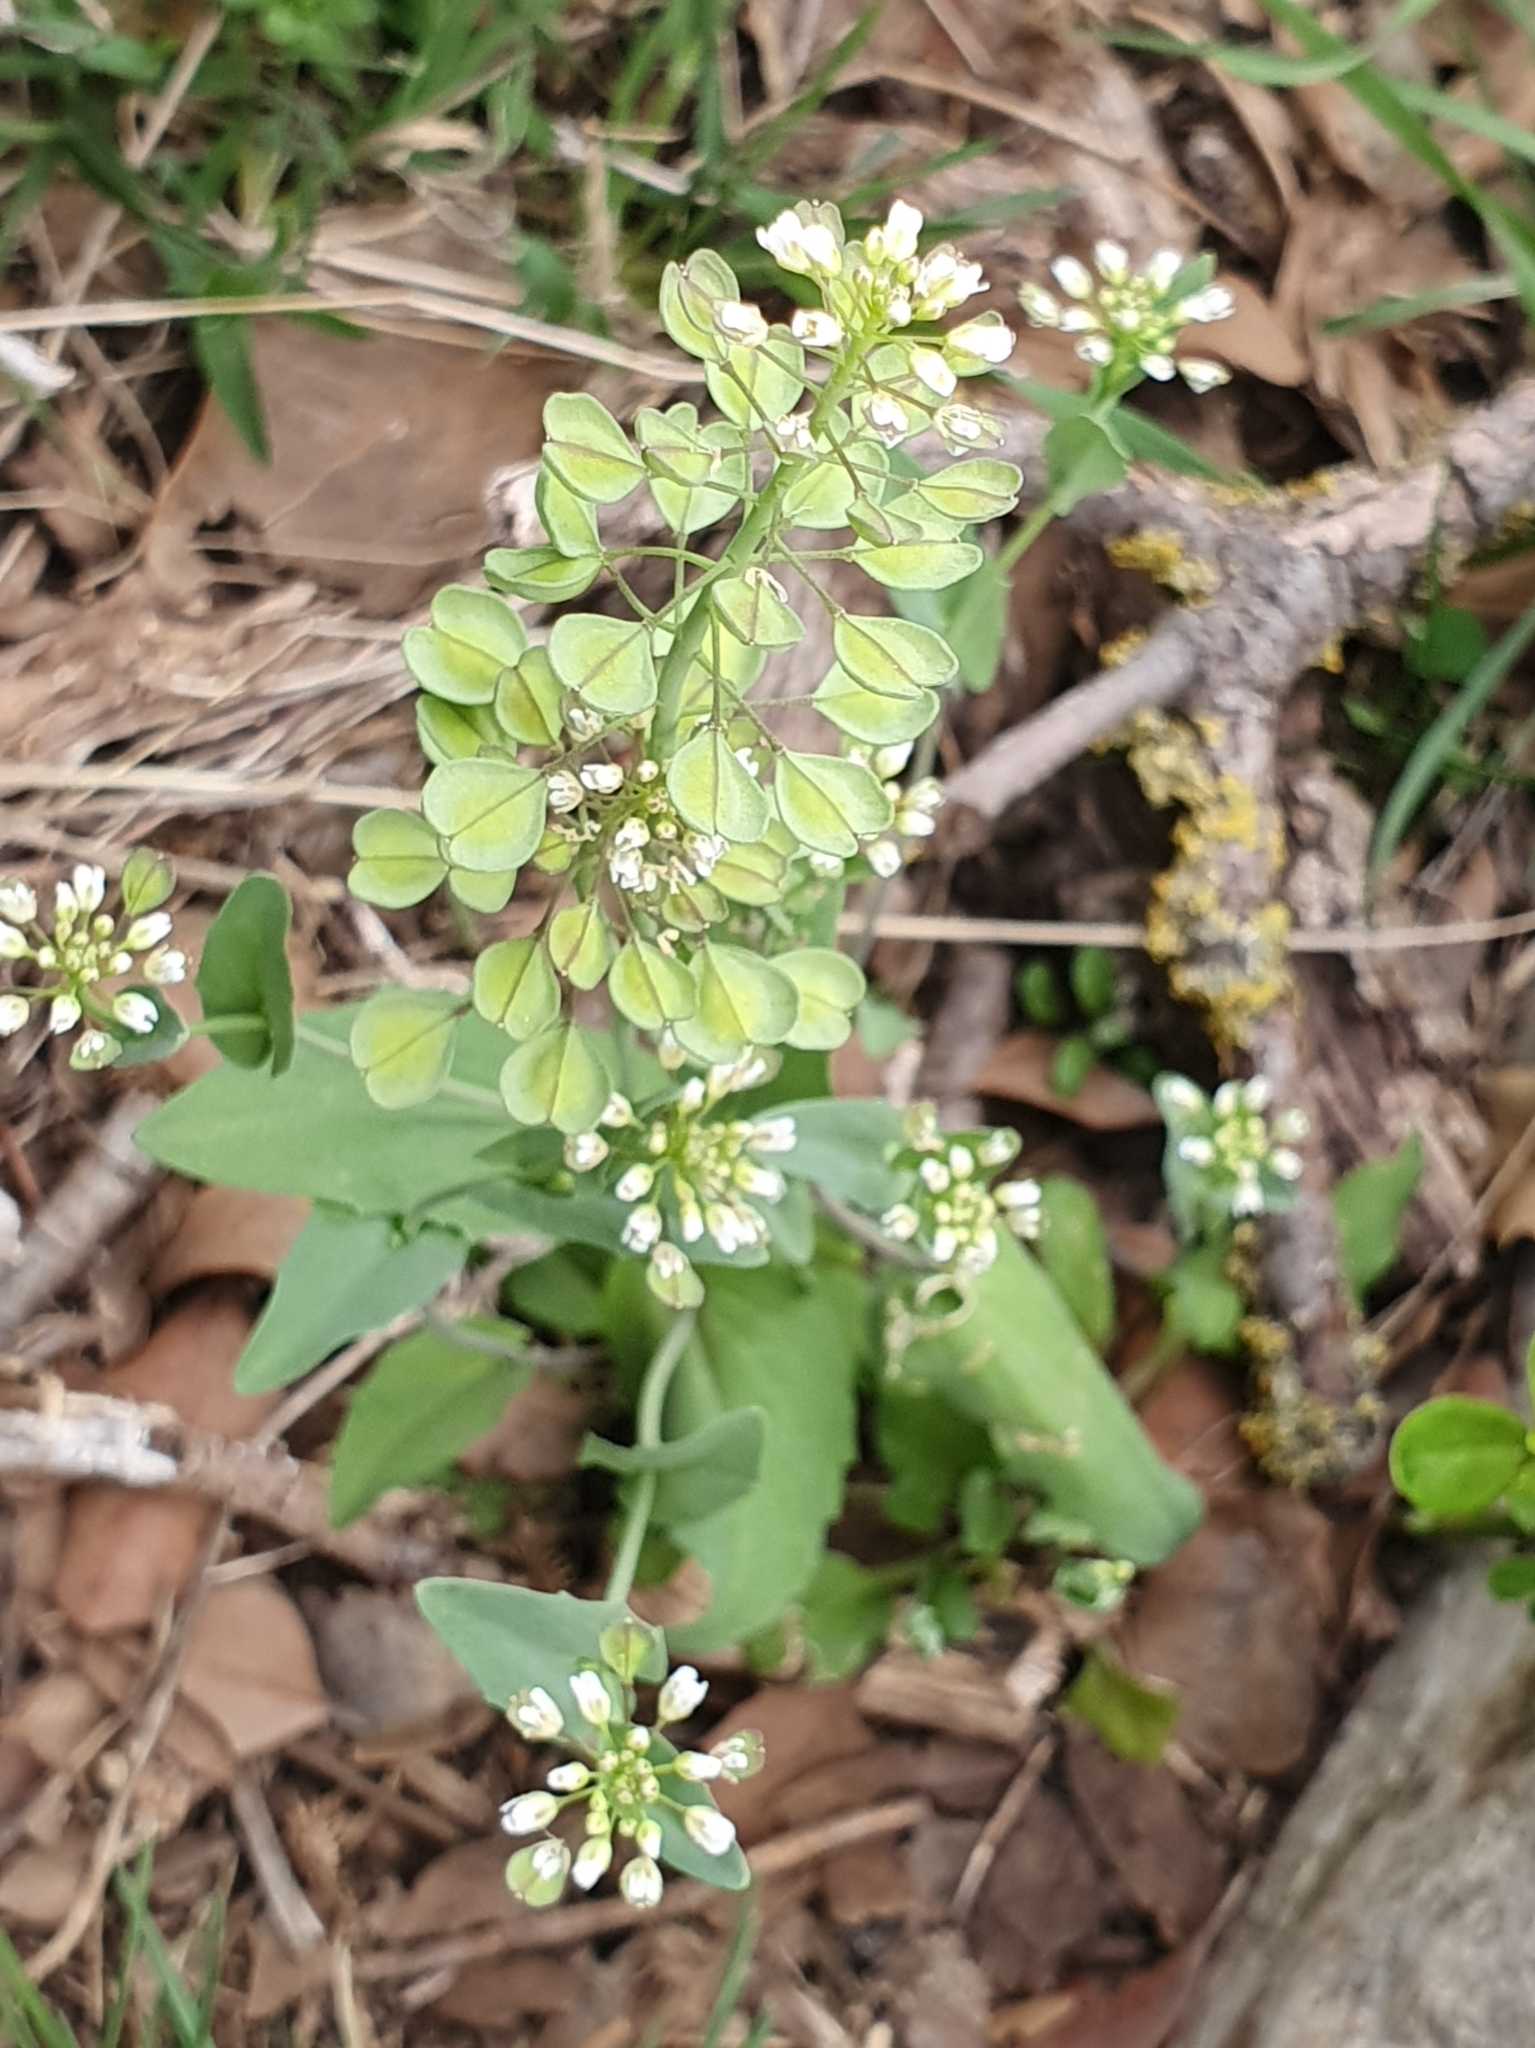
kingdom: Plantae
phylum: Tracheophyta
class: Magnoliopsida
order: Brassicales
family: Brassicaceae
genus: Noccaea
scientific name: Noccaea perfoliata
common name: Perfoliate pennycress
